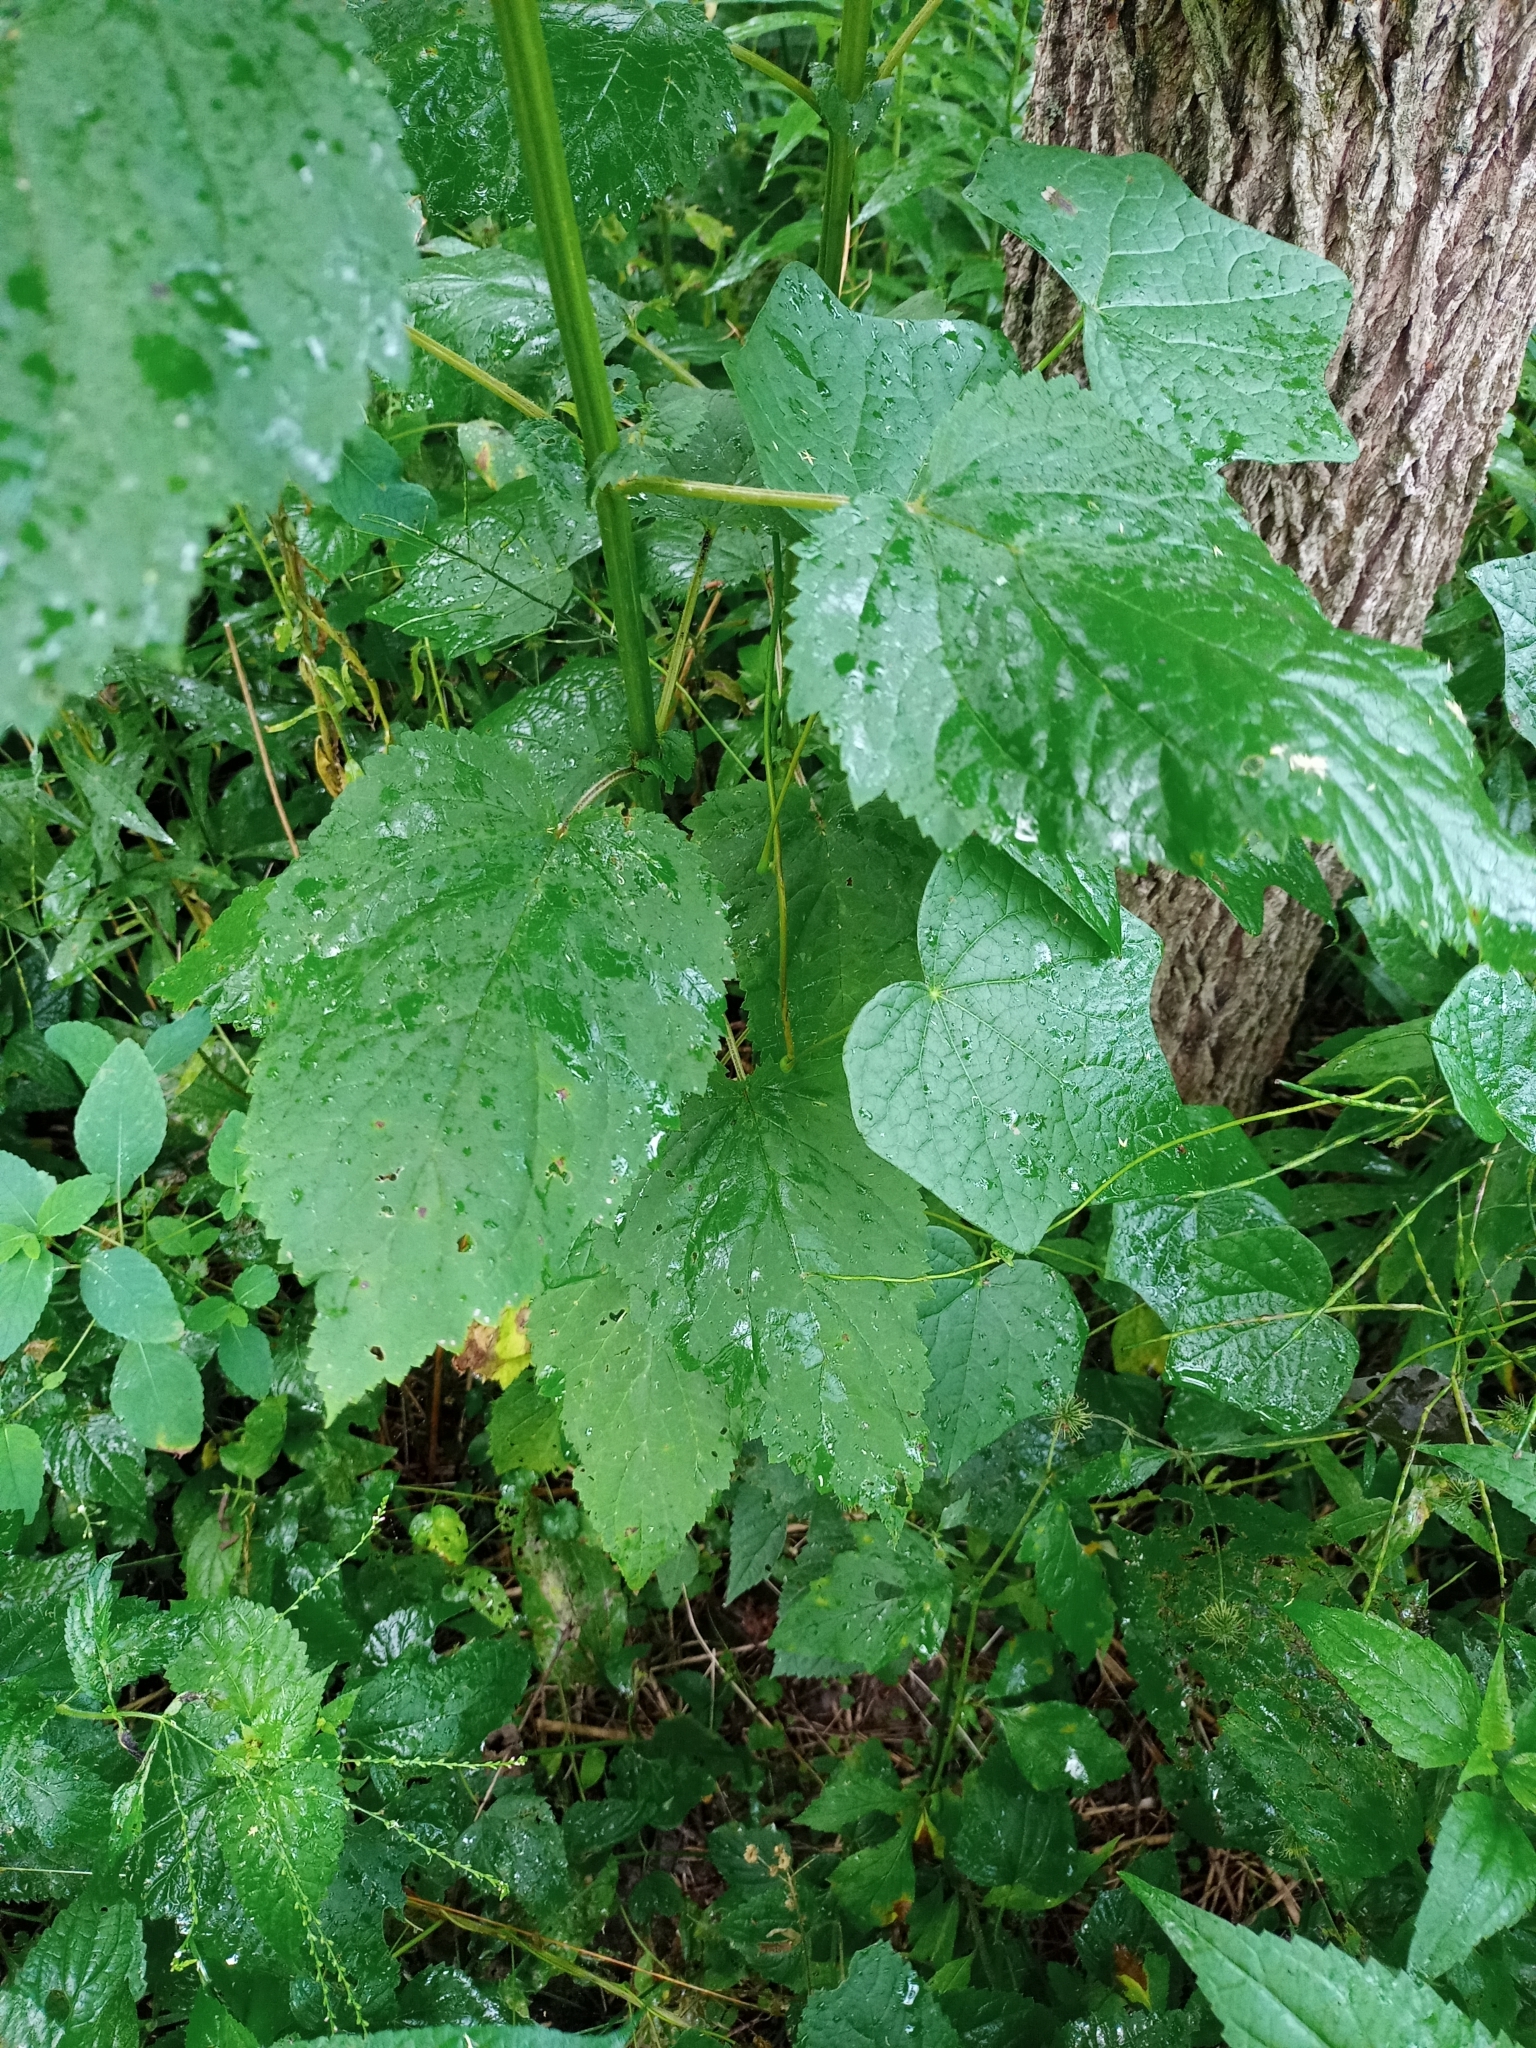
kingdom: Plantae
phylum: Tracheophyta
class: Magnoliopsida
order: Lamiales
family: Scrophulariaceae
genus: Scrophularia
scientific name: Scrophularia marilandica
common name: Eastern figwort
